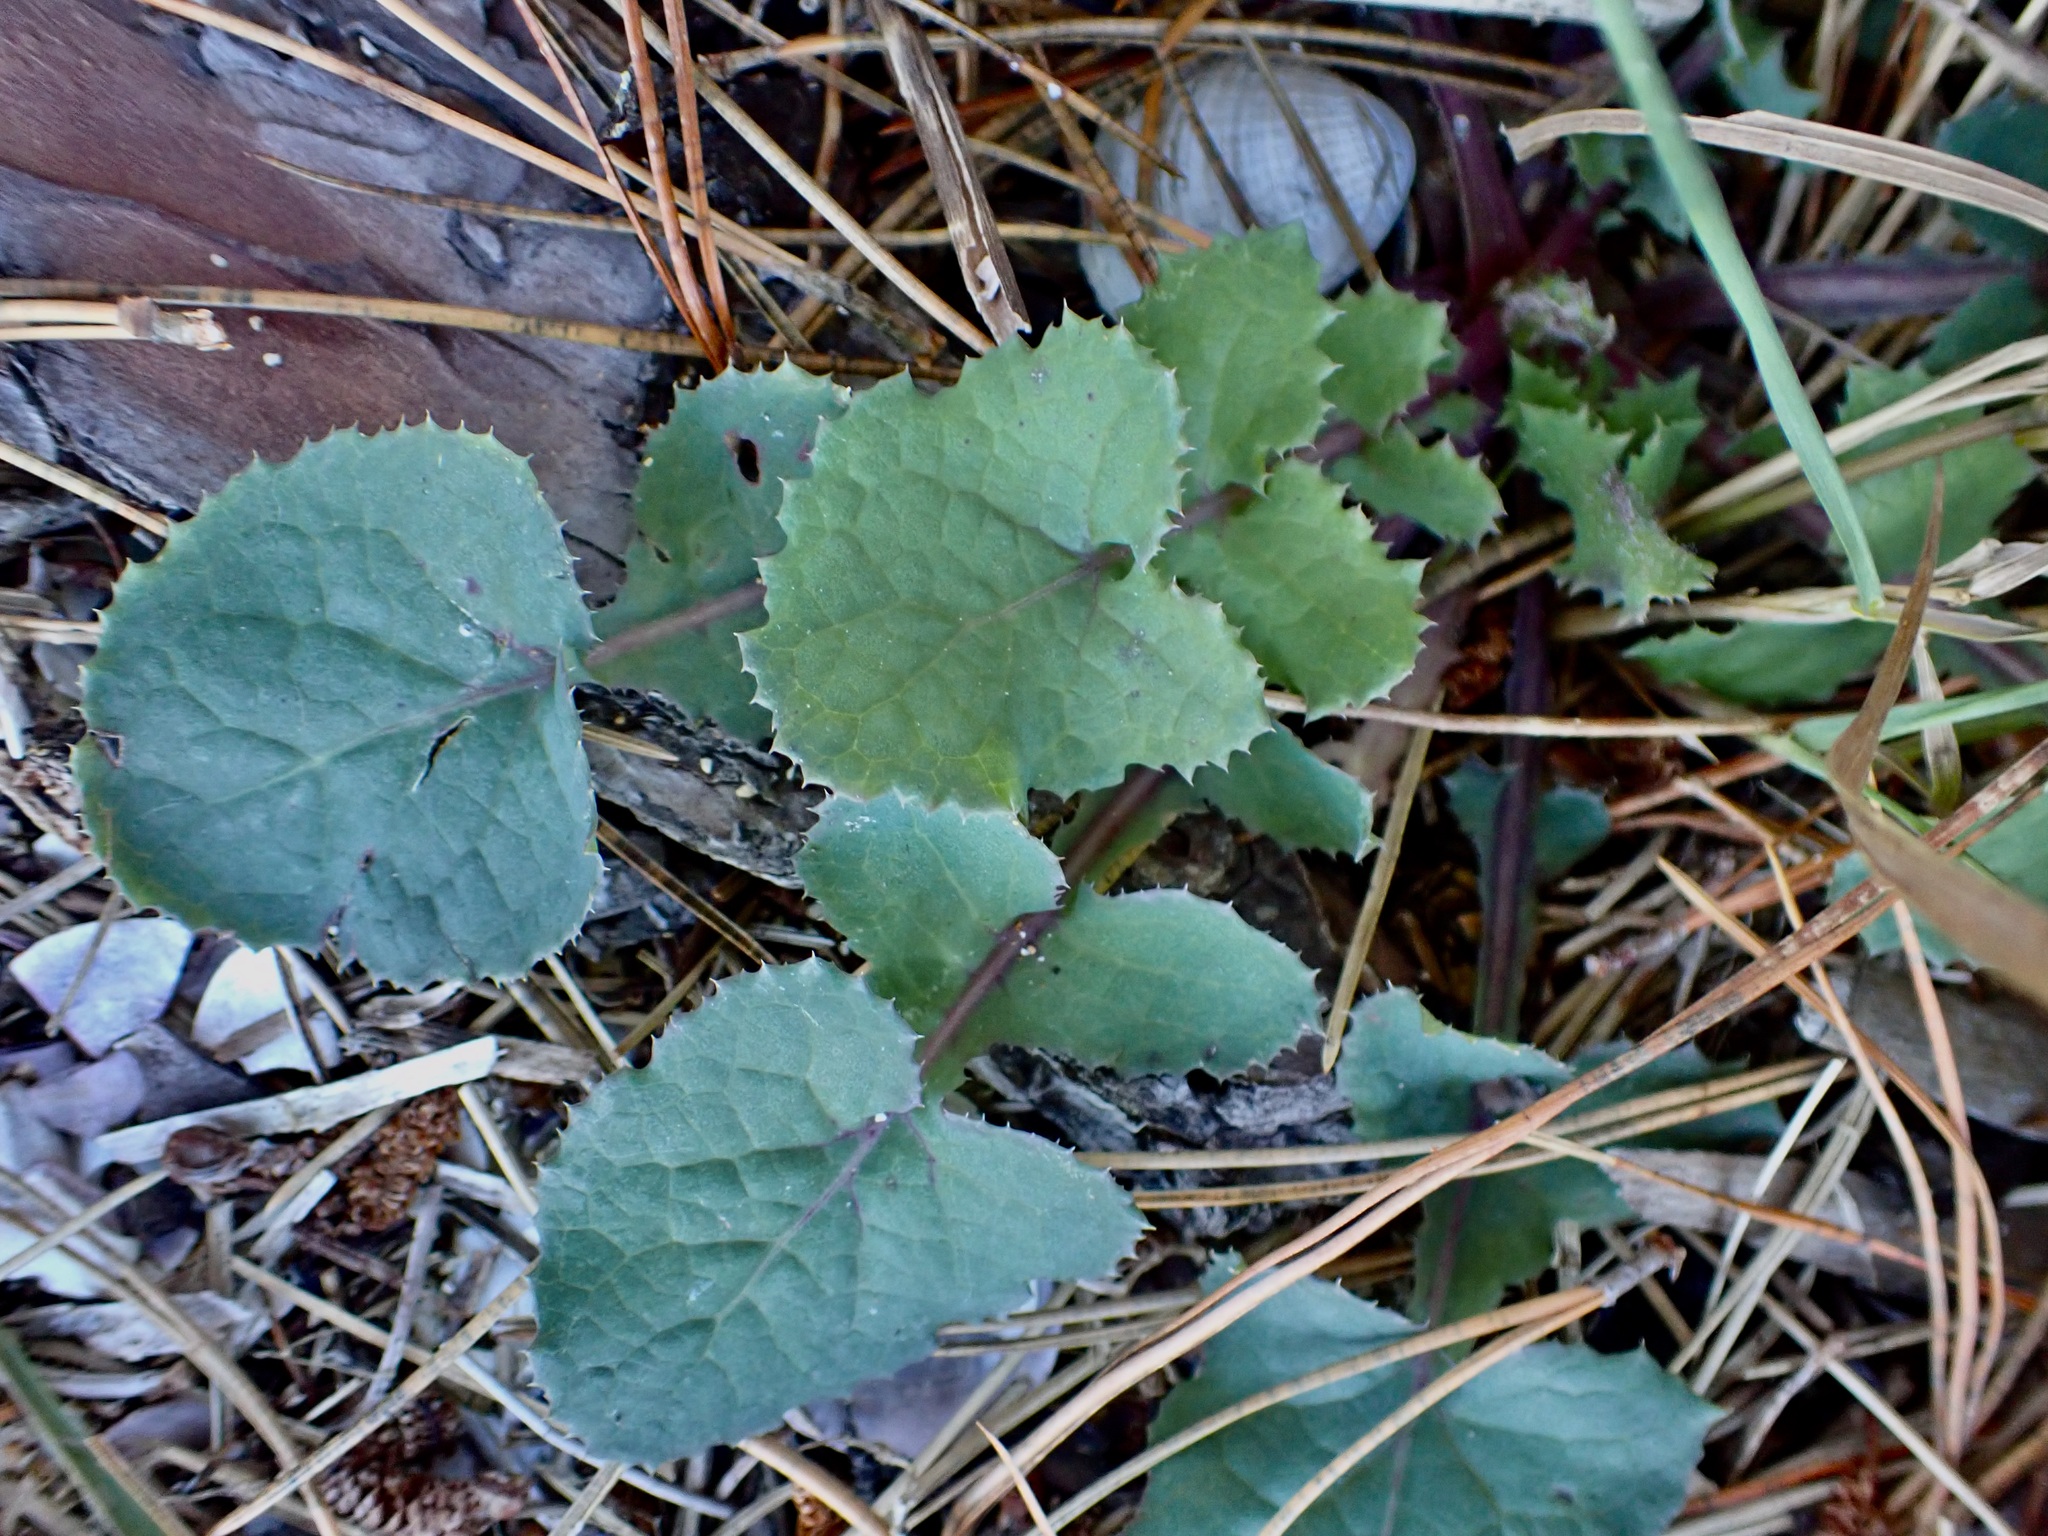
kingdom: Plantae
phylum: Tracheophyta
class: Magnoliopsida
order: Asterales
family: Asteraceae
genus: Sonchus
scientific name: Sonchus oleraceus
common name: Common sowthistle
